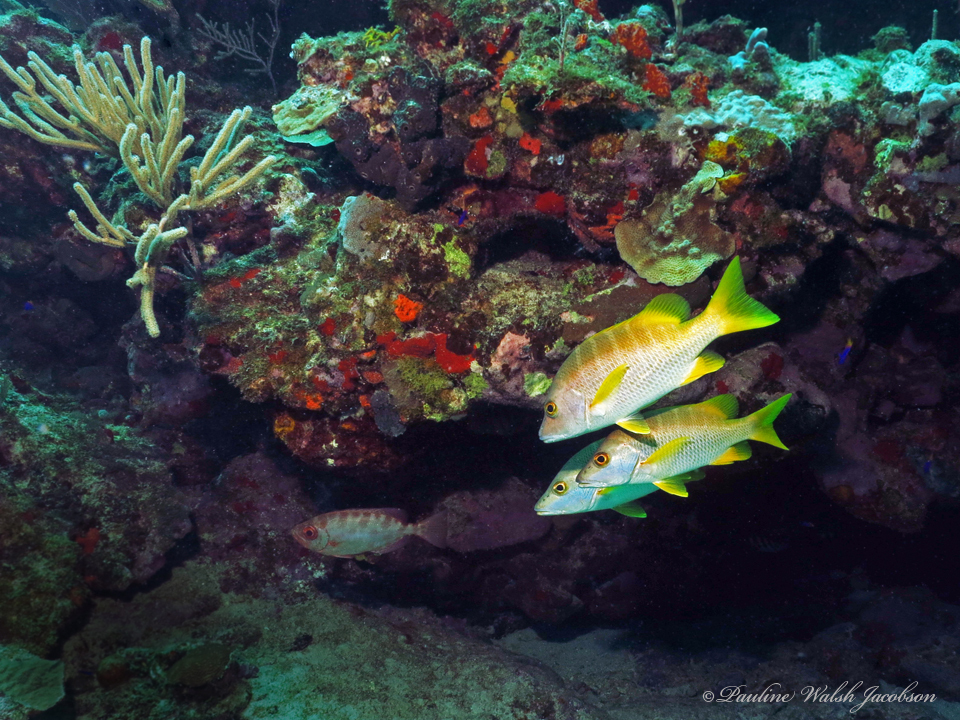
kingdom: Animalia
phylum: Chordata
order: Perciformes
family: Lutjanidae
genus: Lutjanus
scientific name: Lutjanus apodus
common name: Schoolmaster
